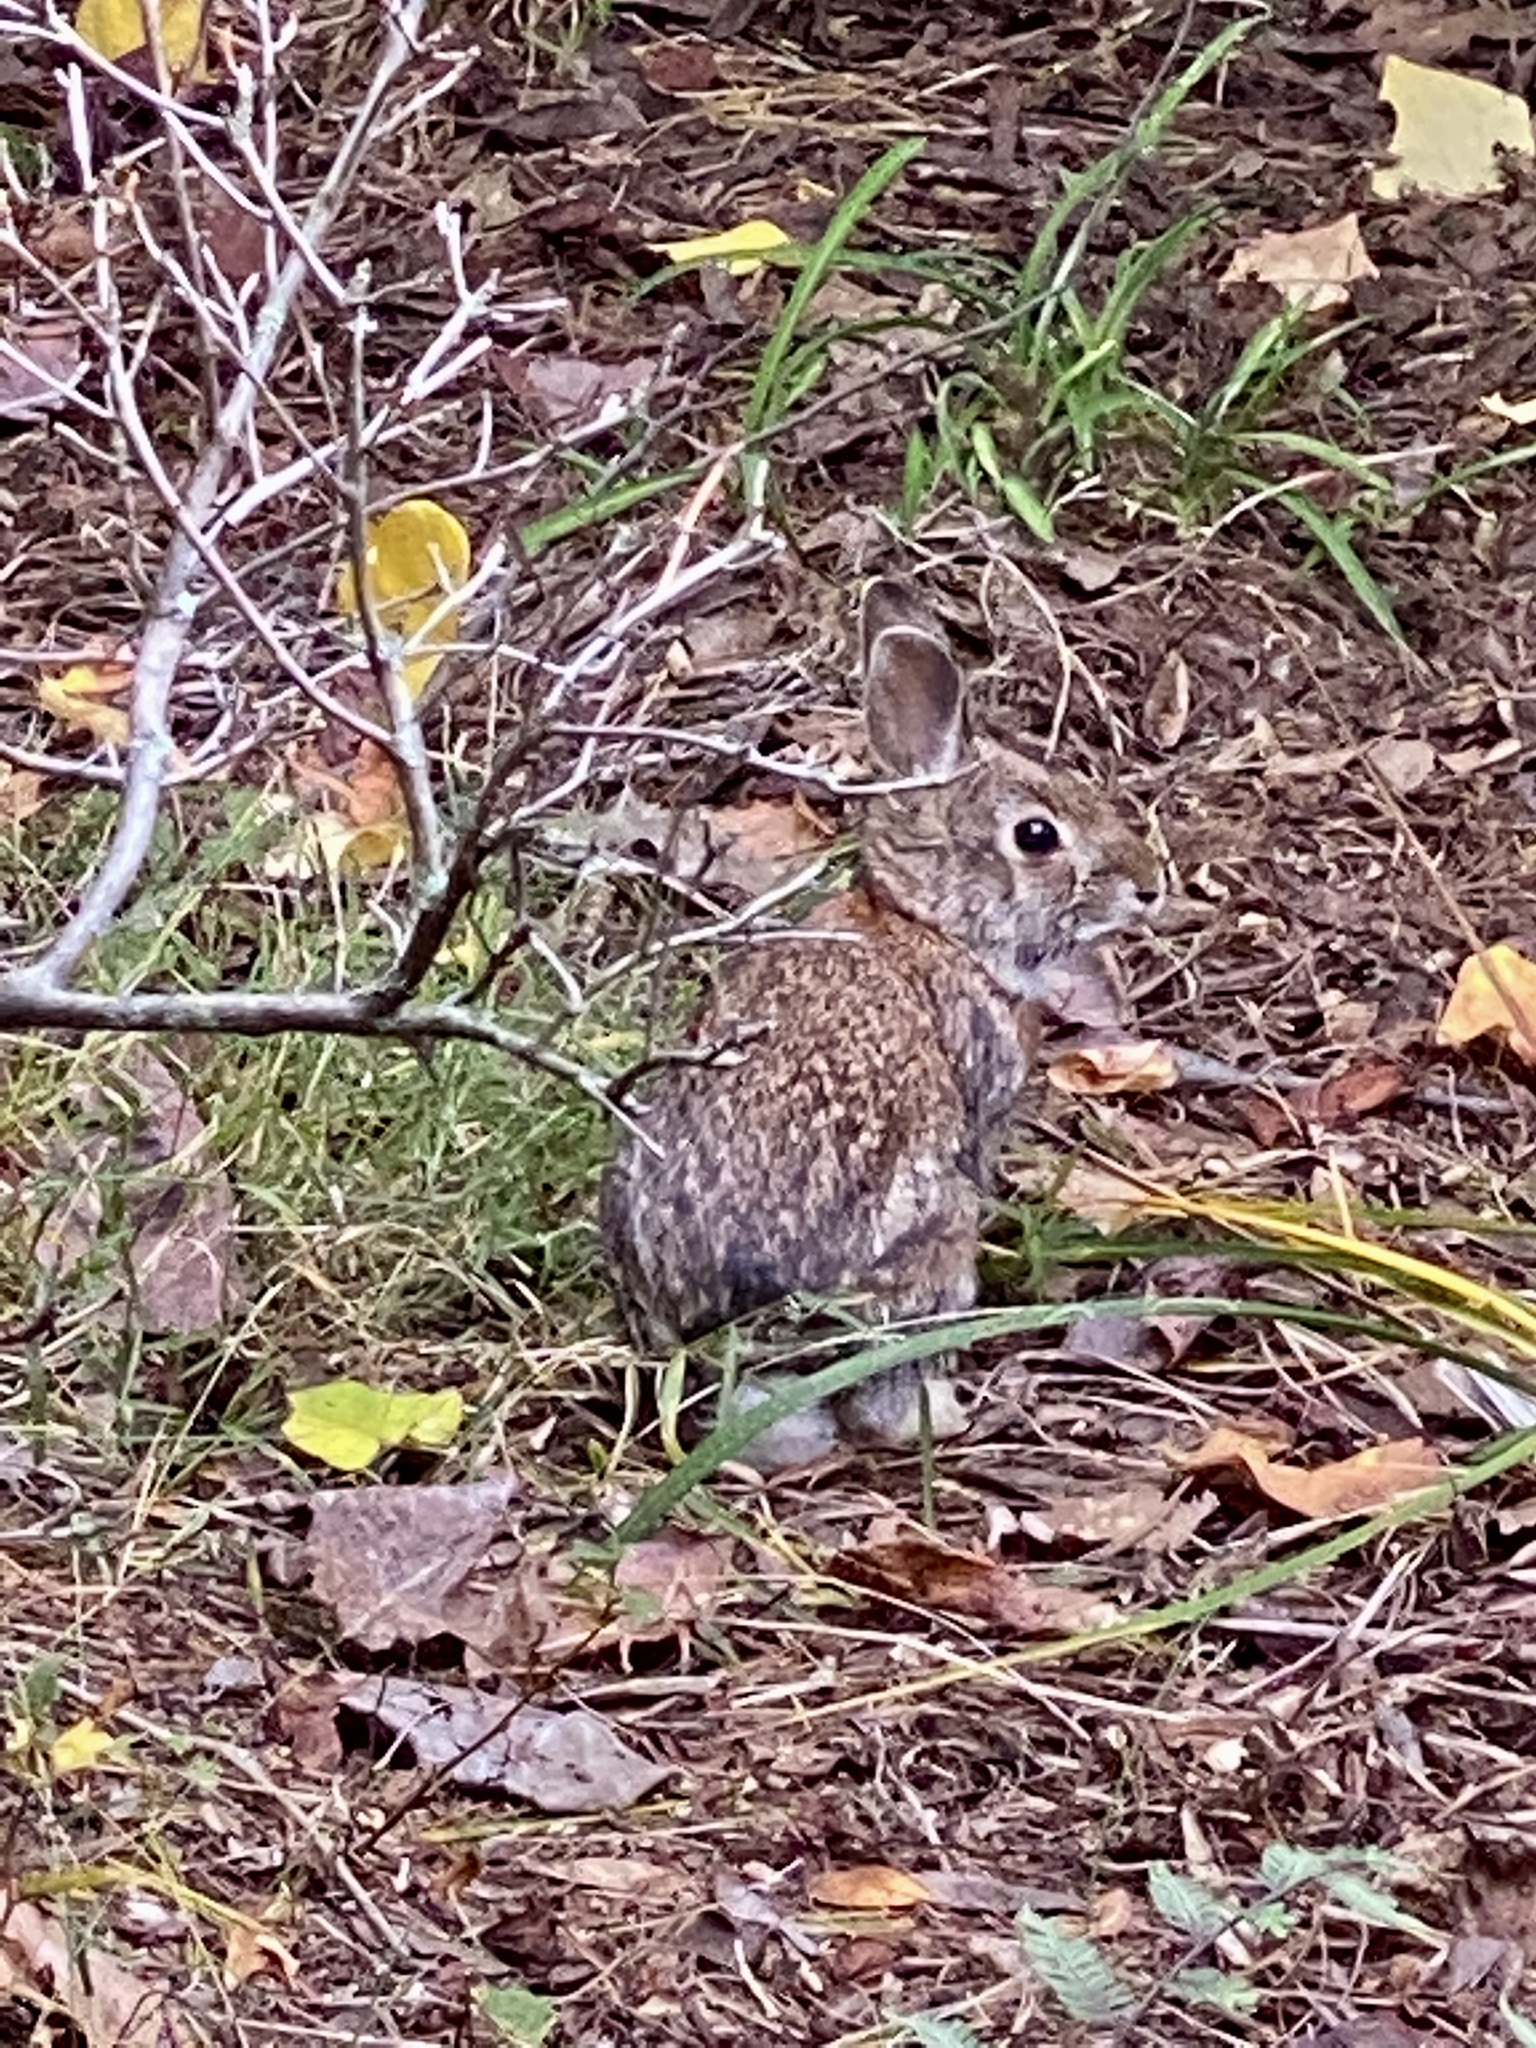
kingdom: Animalia
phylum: Chordata
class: Mammalia
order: Lagomorpha
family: Leporidae
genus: Sylvilagus
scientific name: Sylvilagus floridanus
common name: Eastern cottontail
